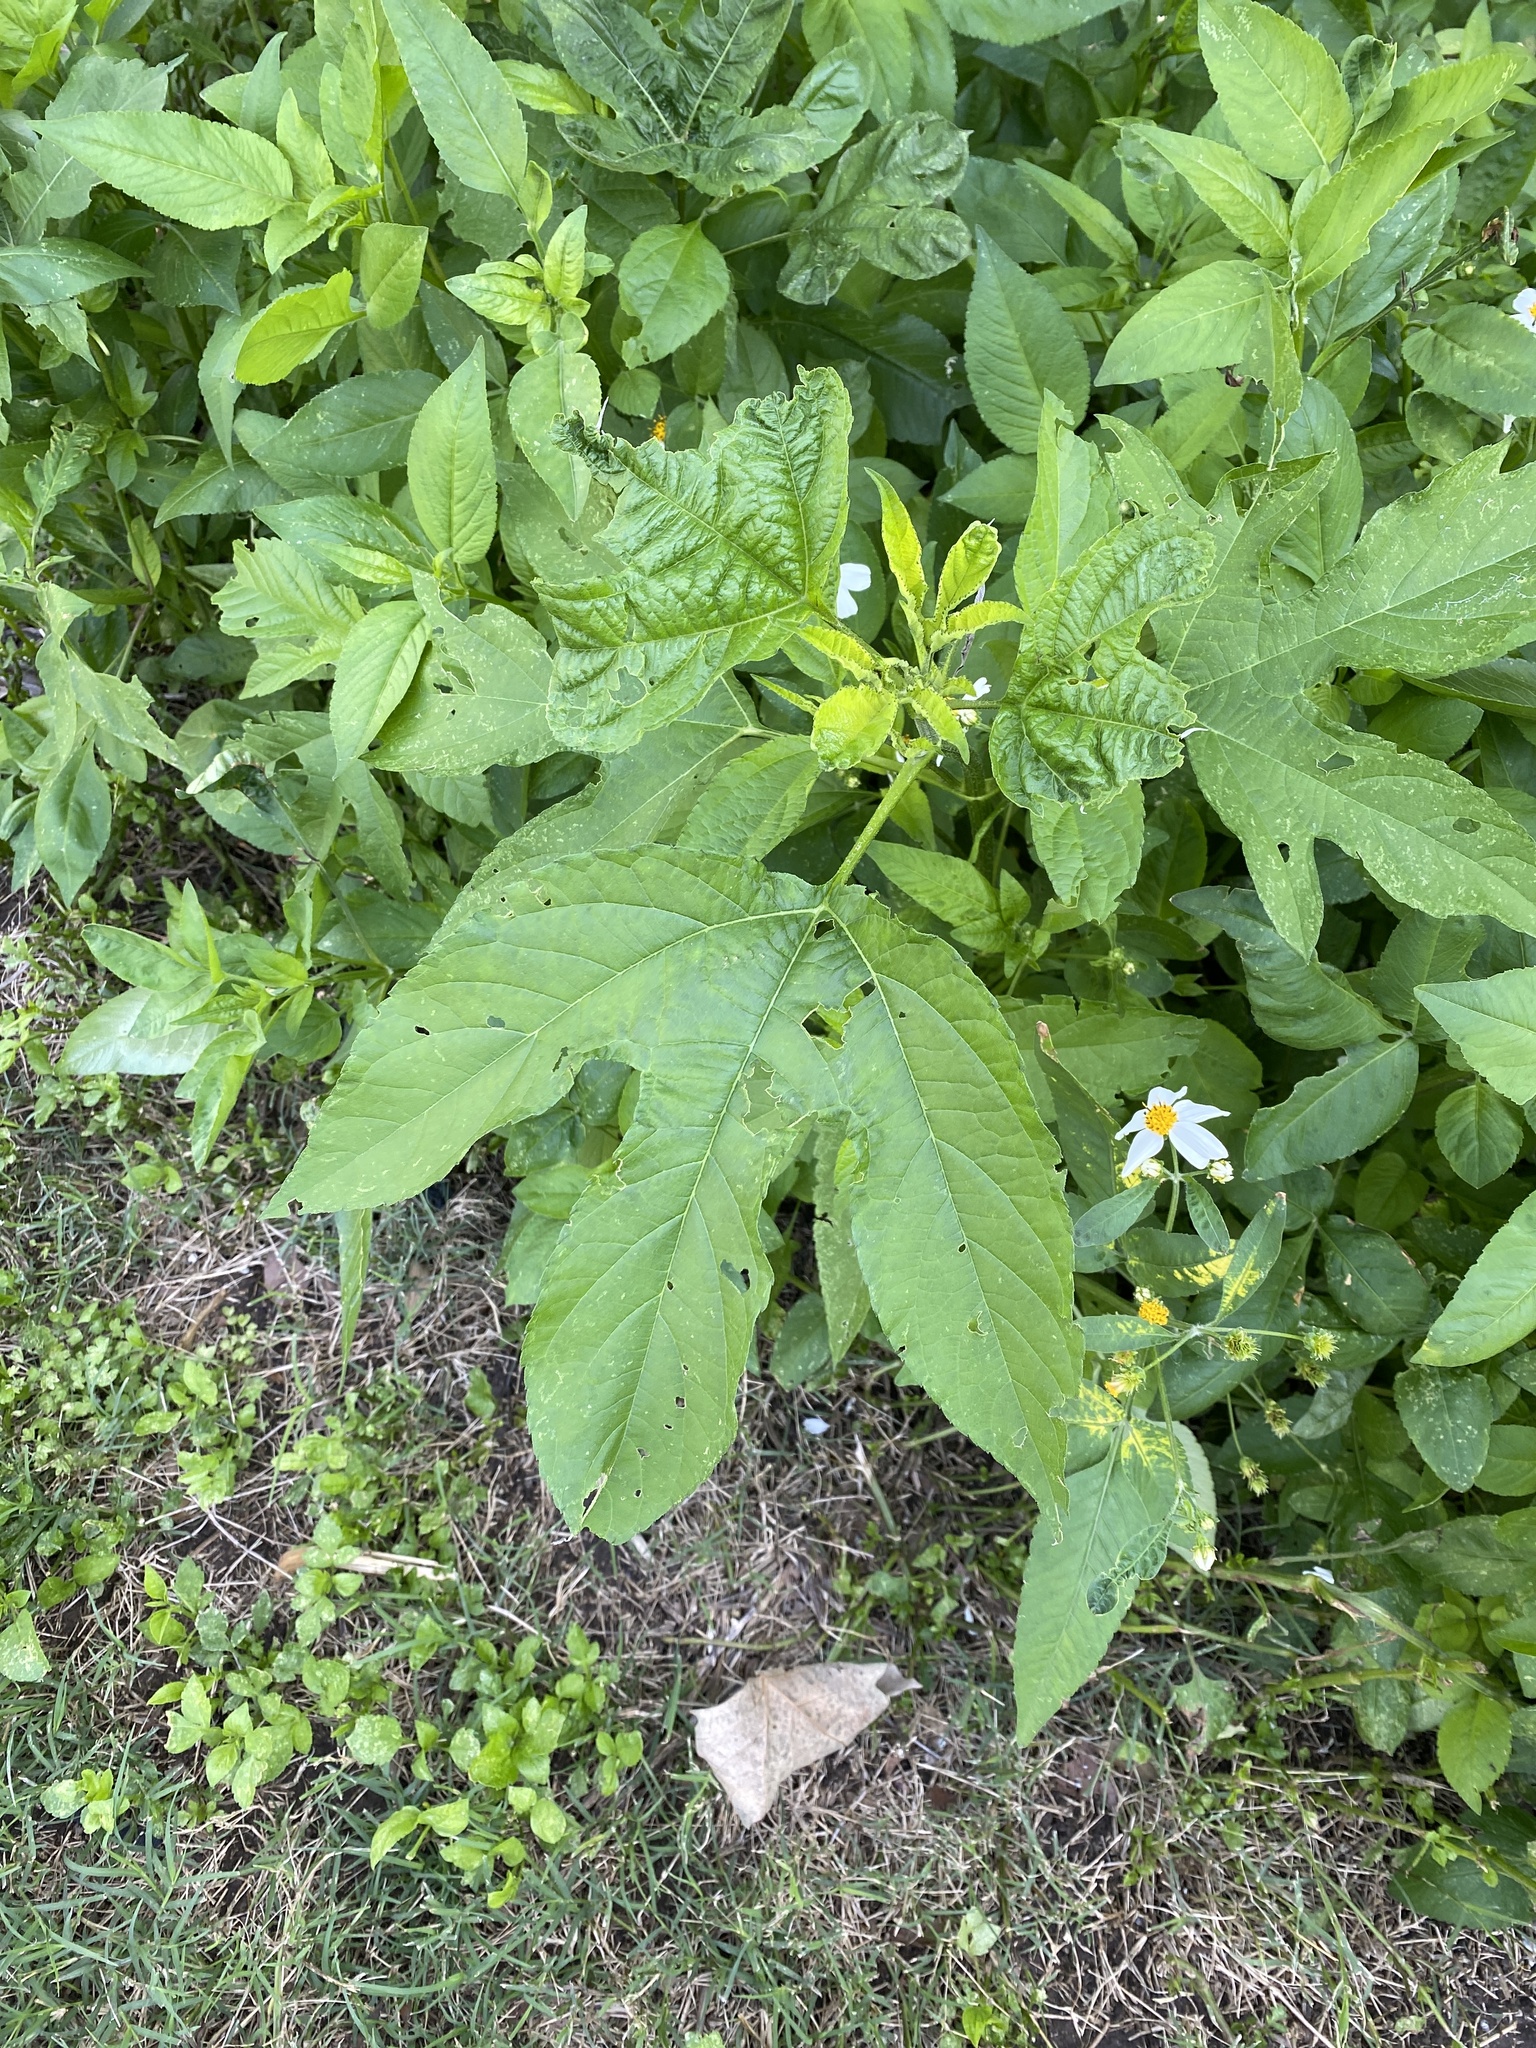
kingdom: Plantae
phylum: Tracheophyta
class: Magnoliopsida
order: Asterales
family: Asteraceae
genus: Ambrosia
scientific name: Ambrosia trifida
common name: Giant ragweed
